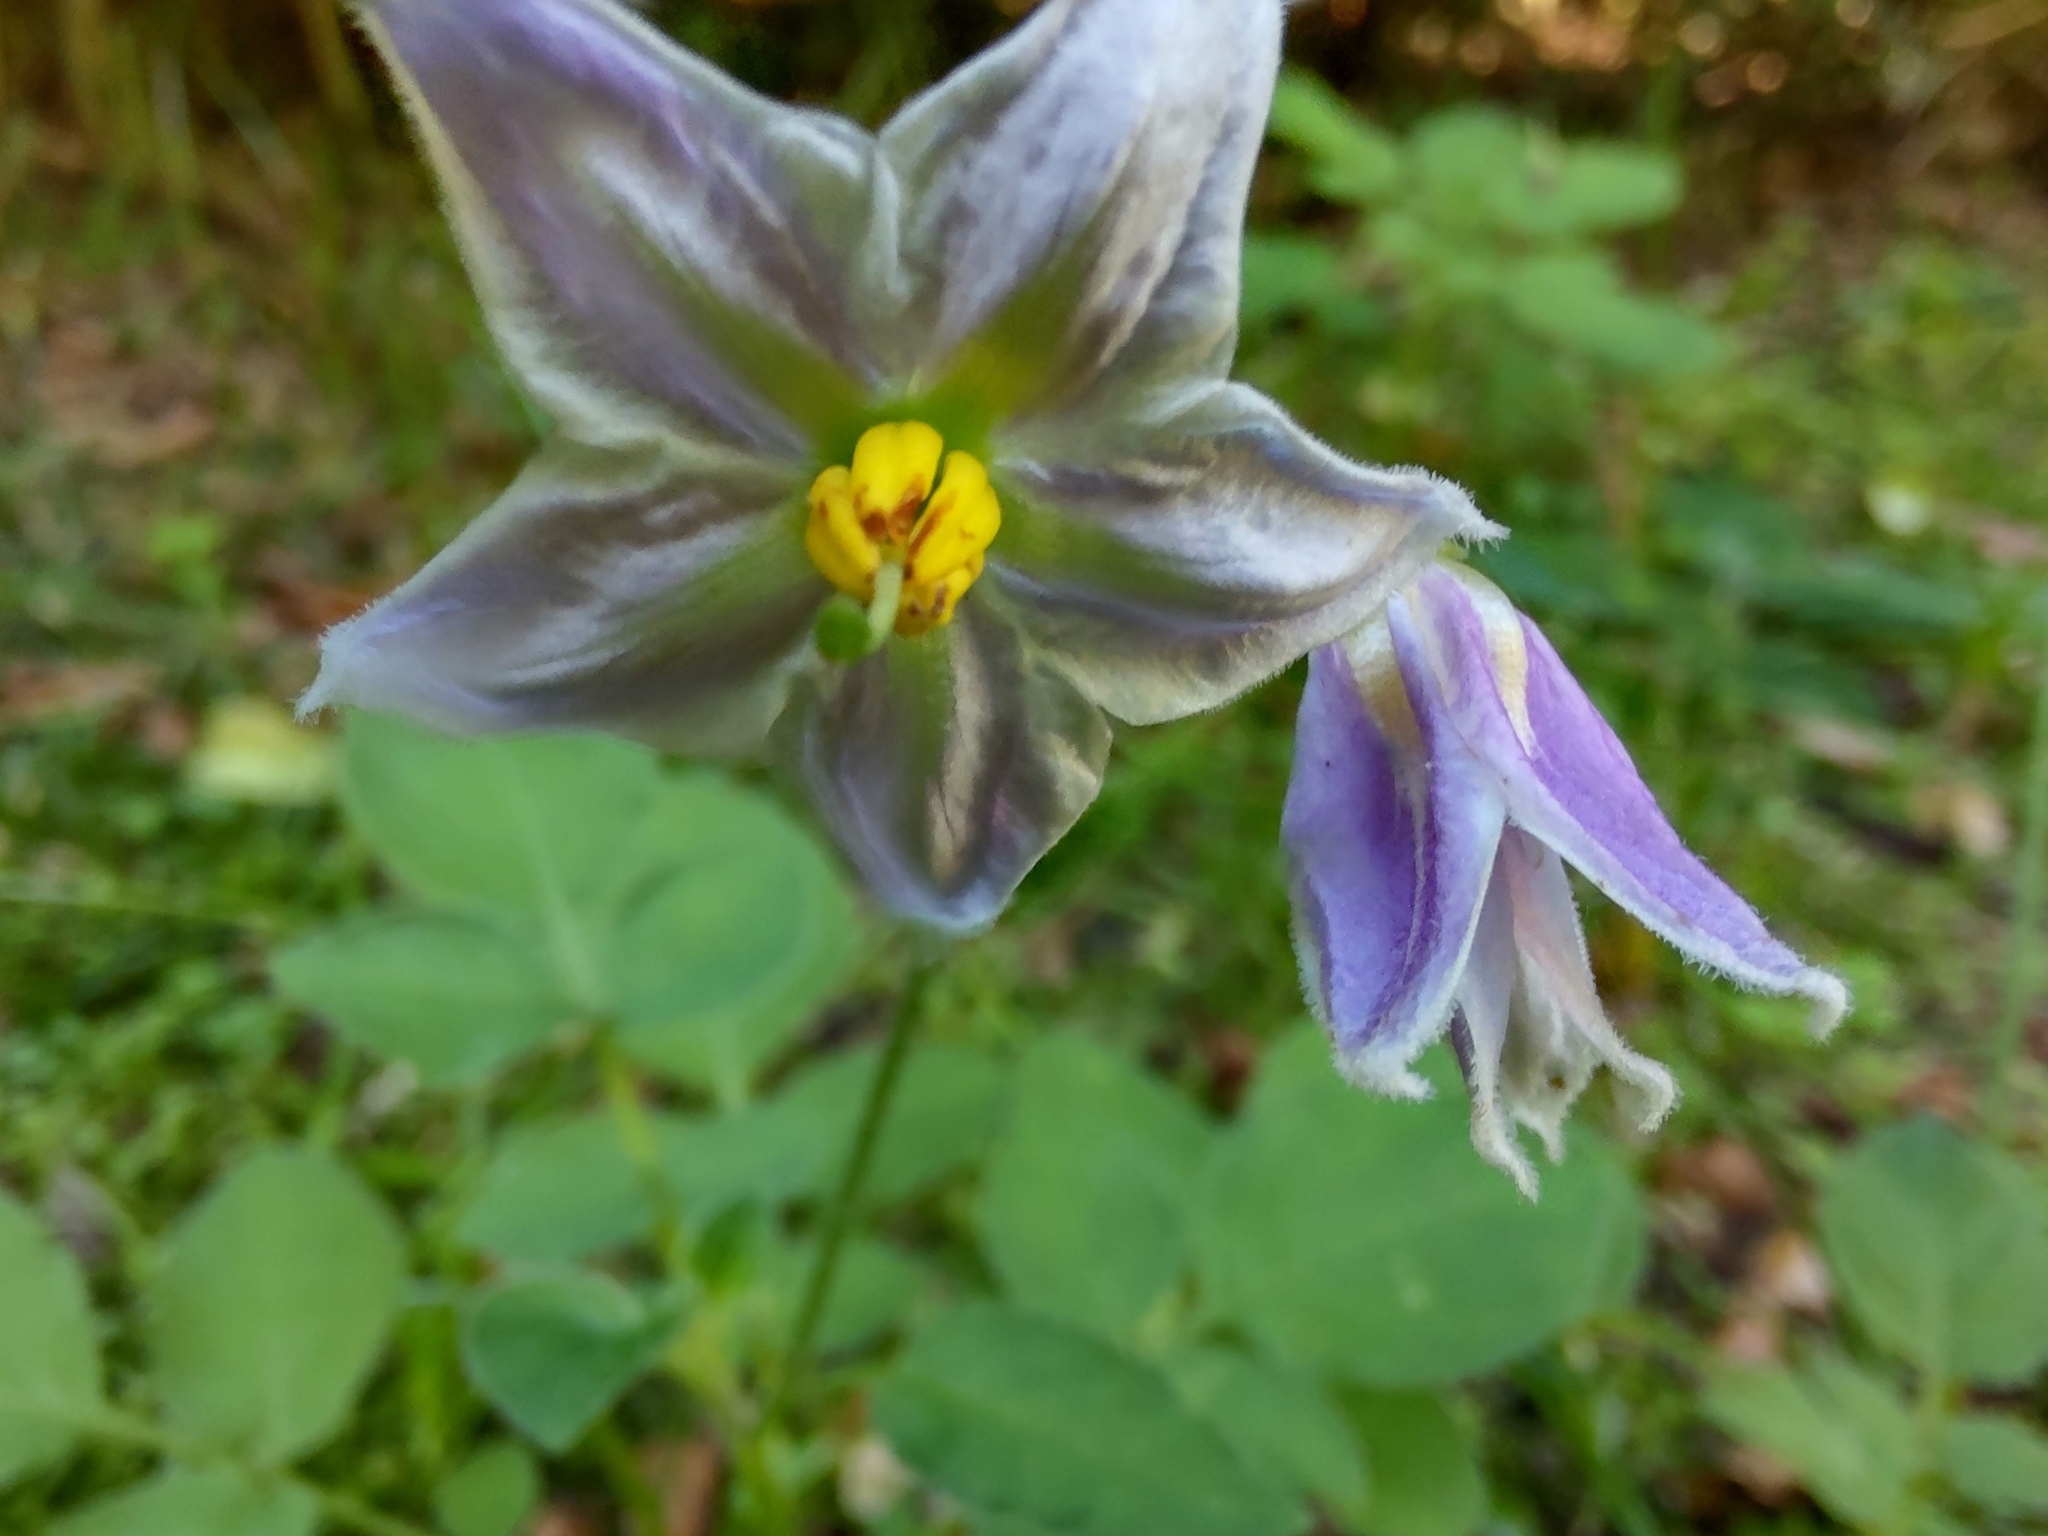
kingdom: Plantae
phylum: Tracheophyta
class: Magnoliopsida
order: Solanales
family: Solanaceae
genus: Solanum
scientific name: Solanum commersonii
